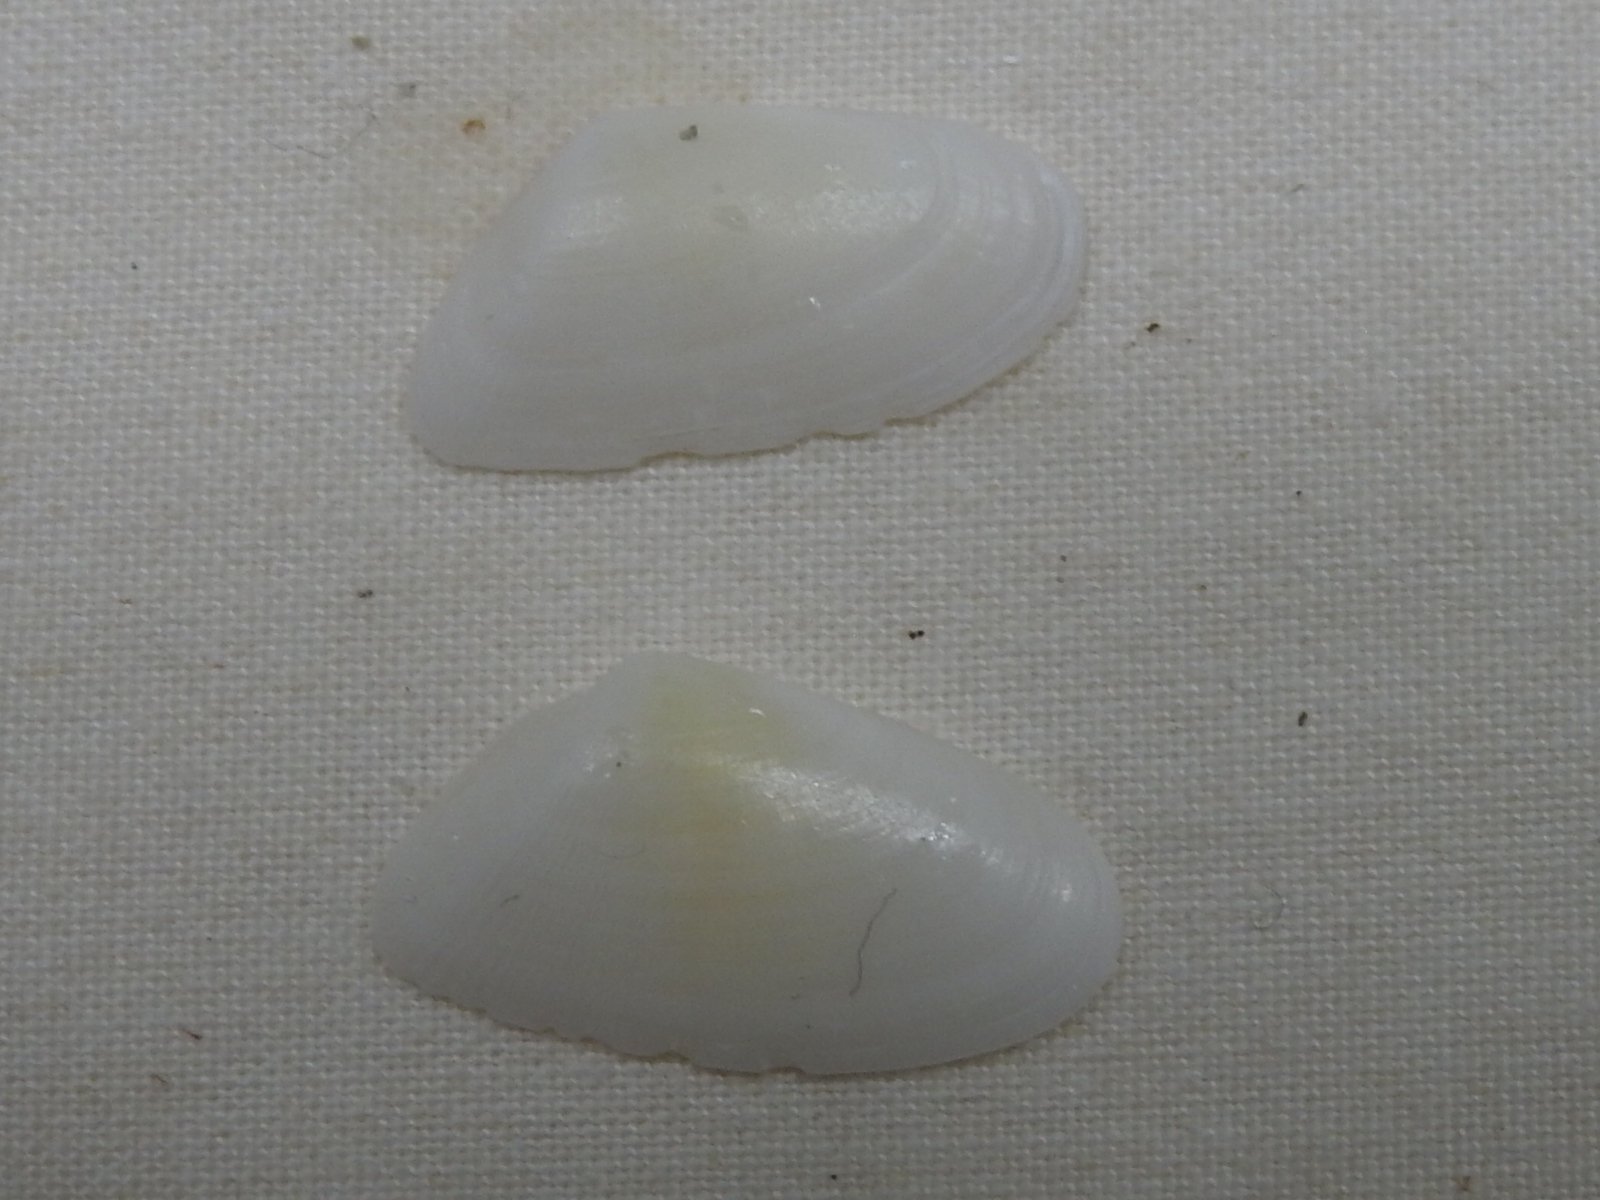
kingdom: Animalia
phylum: Mollusca
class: Bivalvia
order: Cardiida
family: Donacidae
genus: Donax
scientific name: Donax variabilis
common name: Butterfly shell
